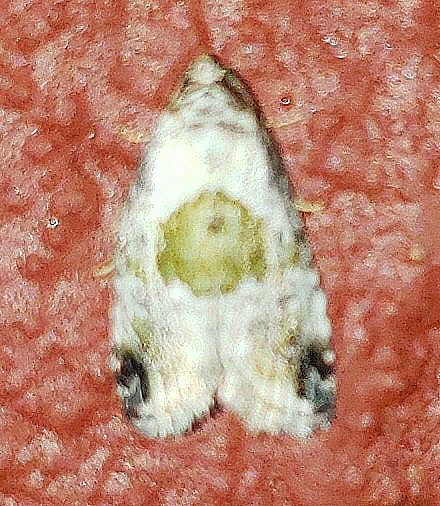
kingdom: Animalia
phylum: Arthropoda
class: Insecta
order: Lepidoptera
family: Noctuidae
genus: Maliattha
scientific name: Maliattha synochitis
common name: Black-dotted glyph
